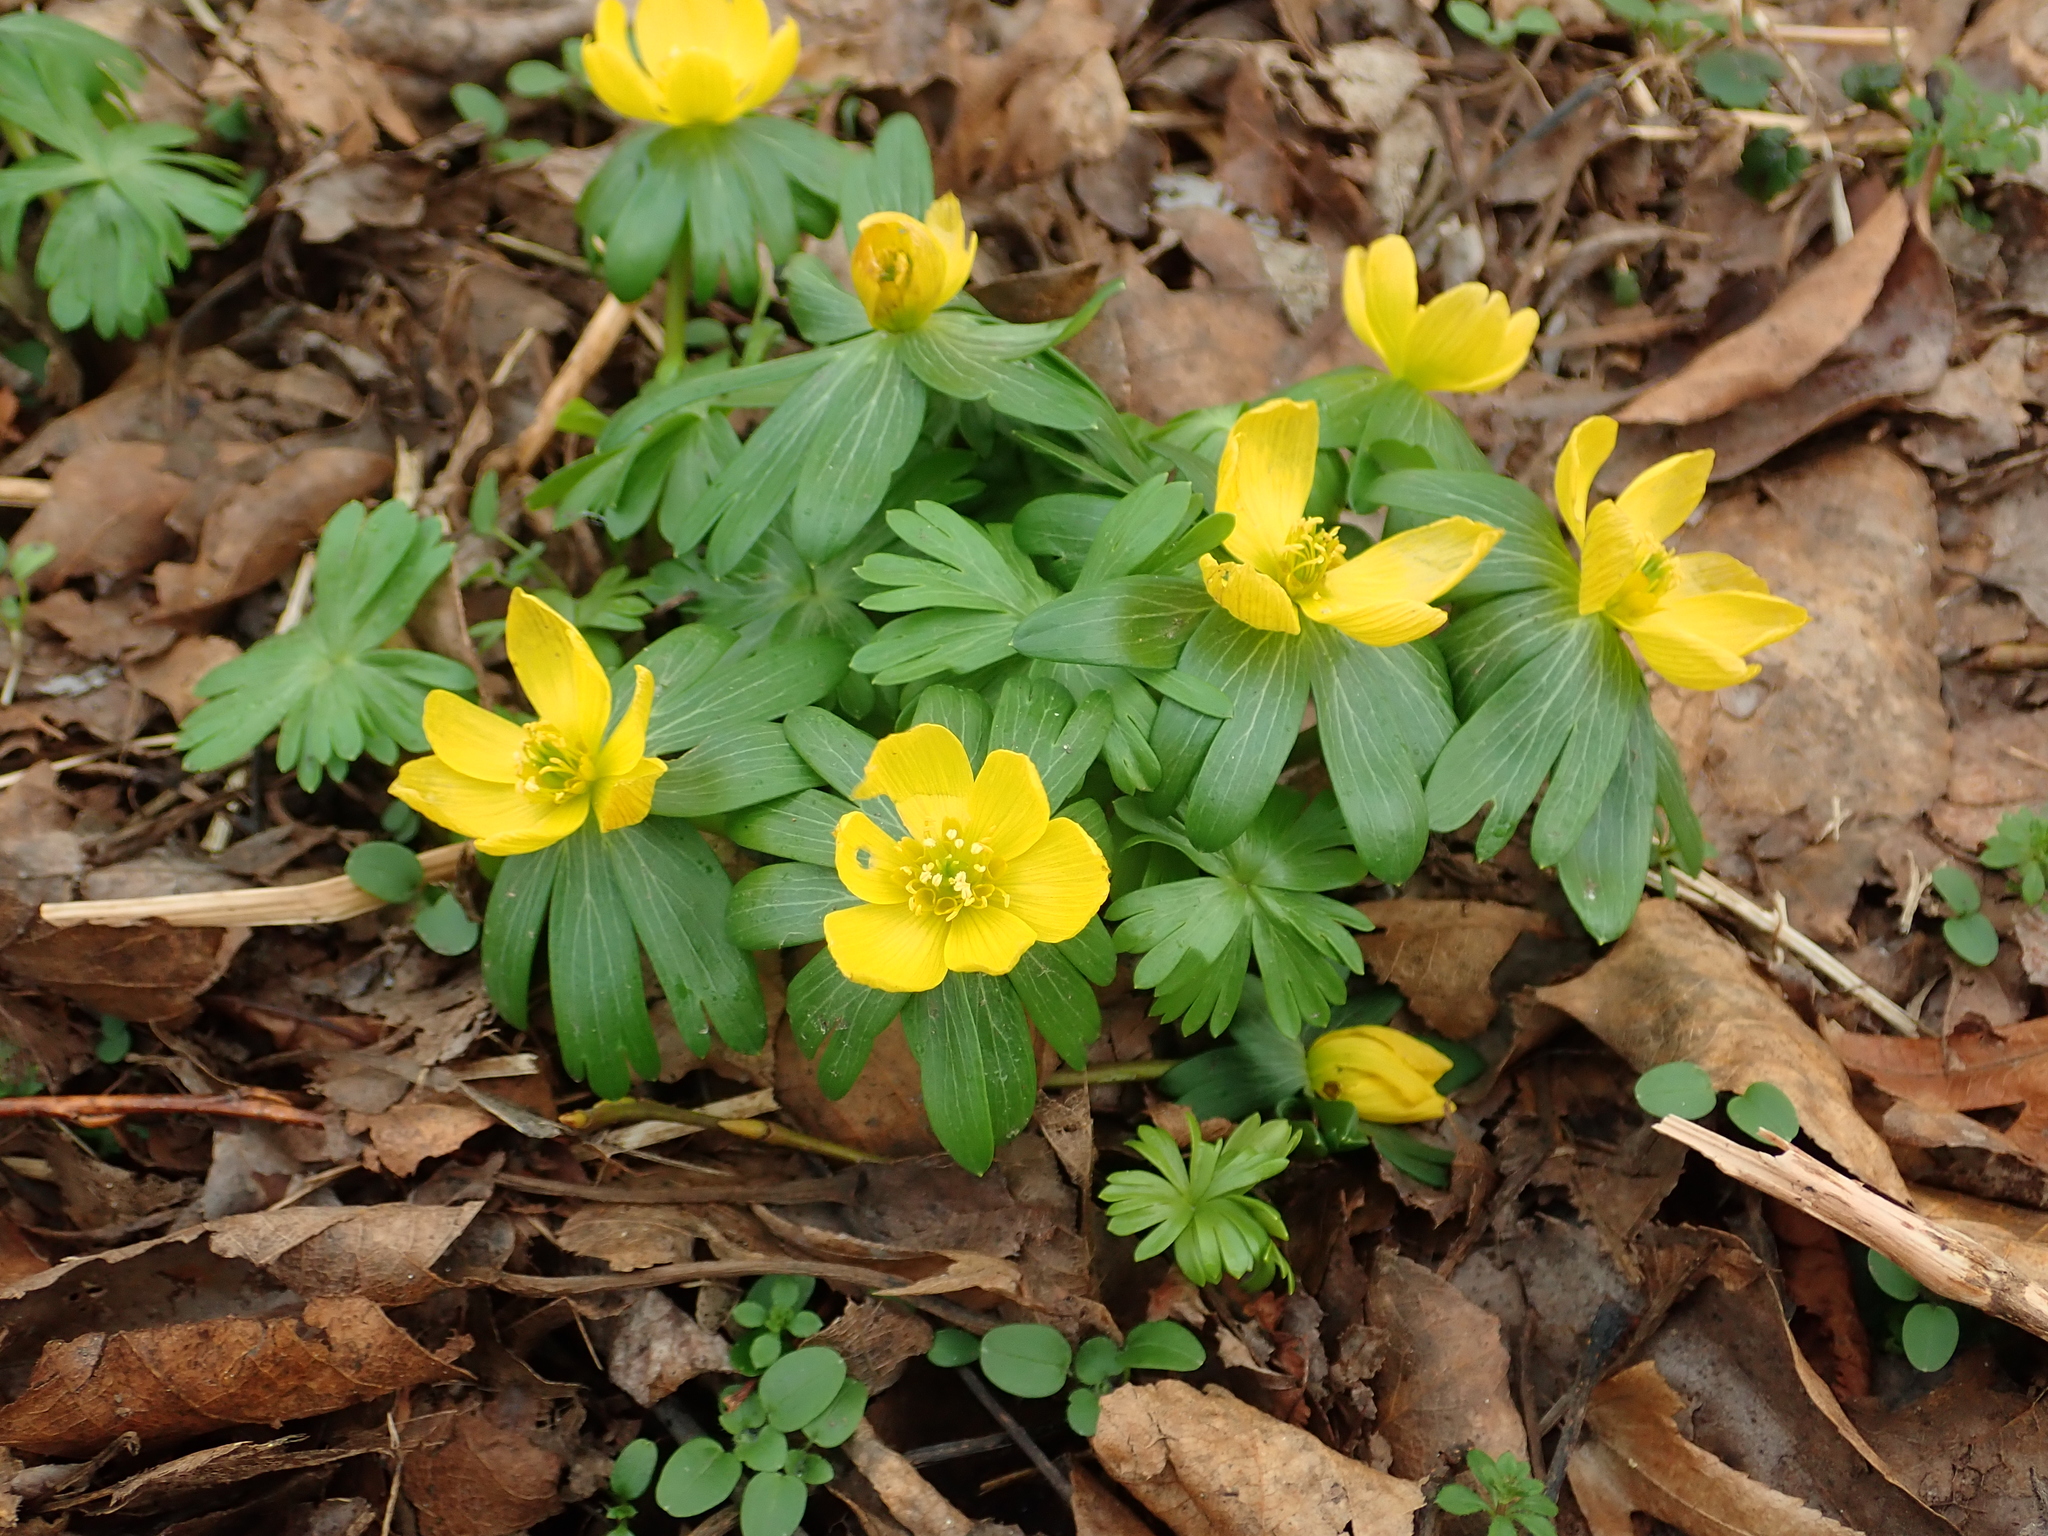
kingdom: Plantae
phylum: Tracheophyta
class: Magnoliopsida
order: Ranunculales
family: Ranunculaceae
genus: Eranthis
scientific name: Eranthis hyemalis
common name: Winter aconite
